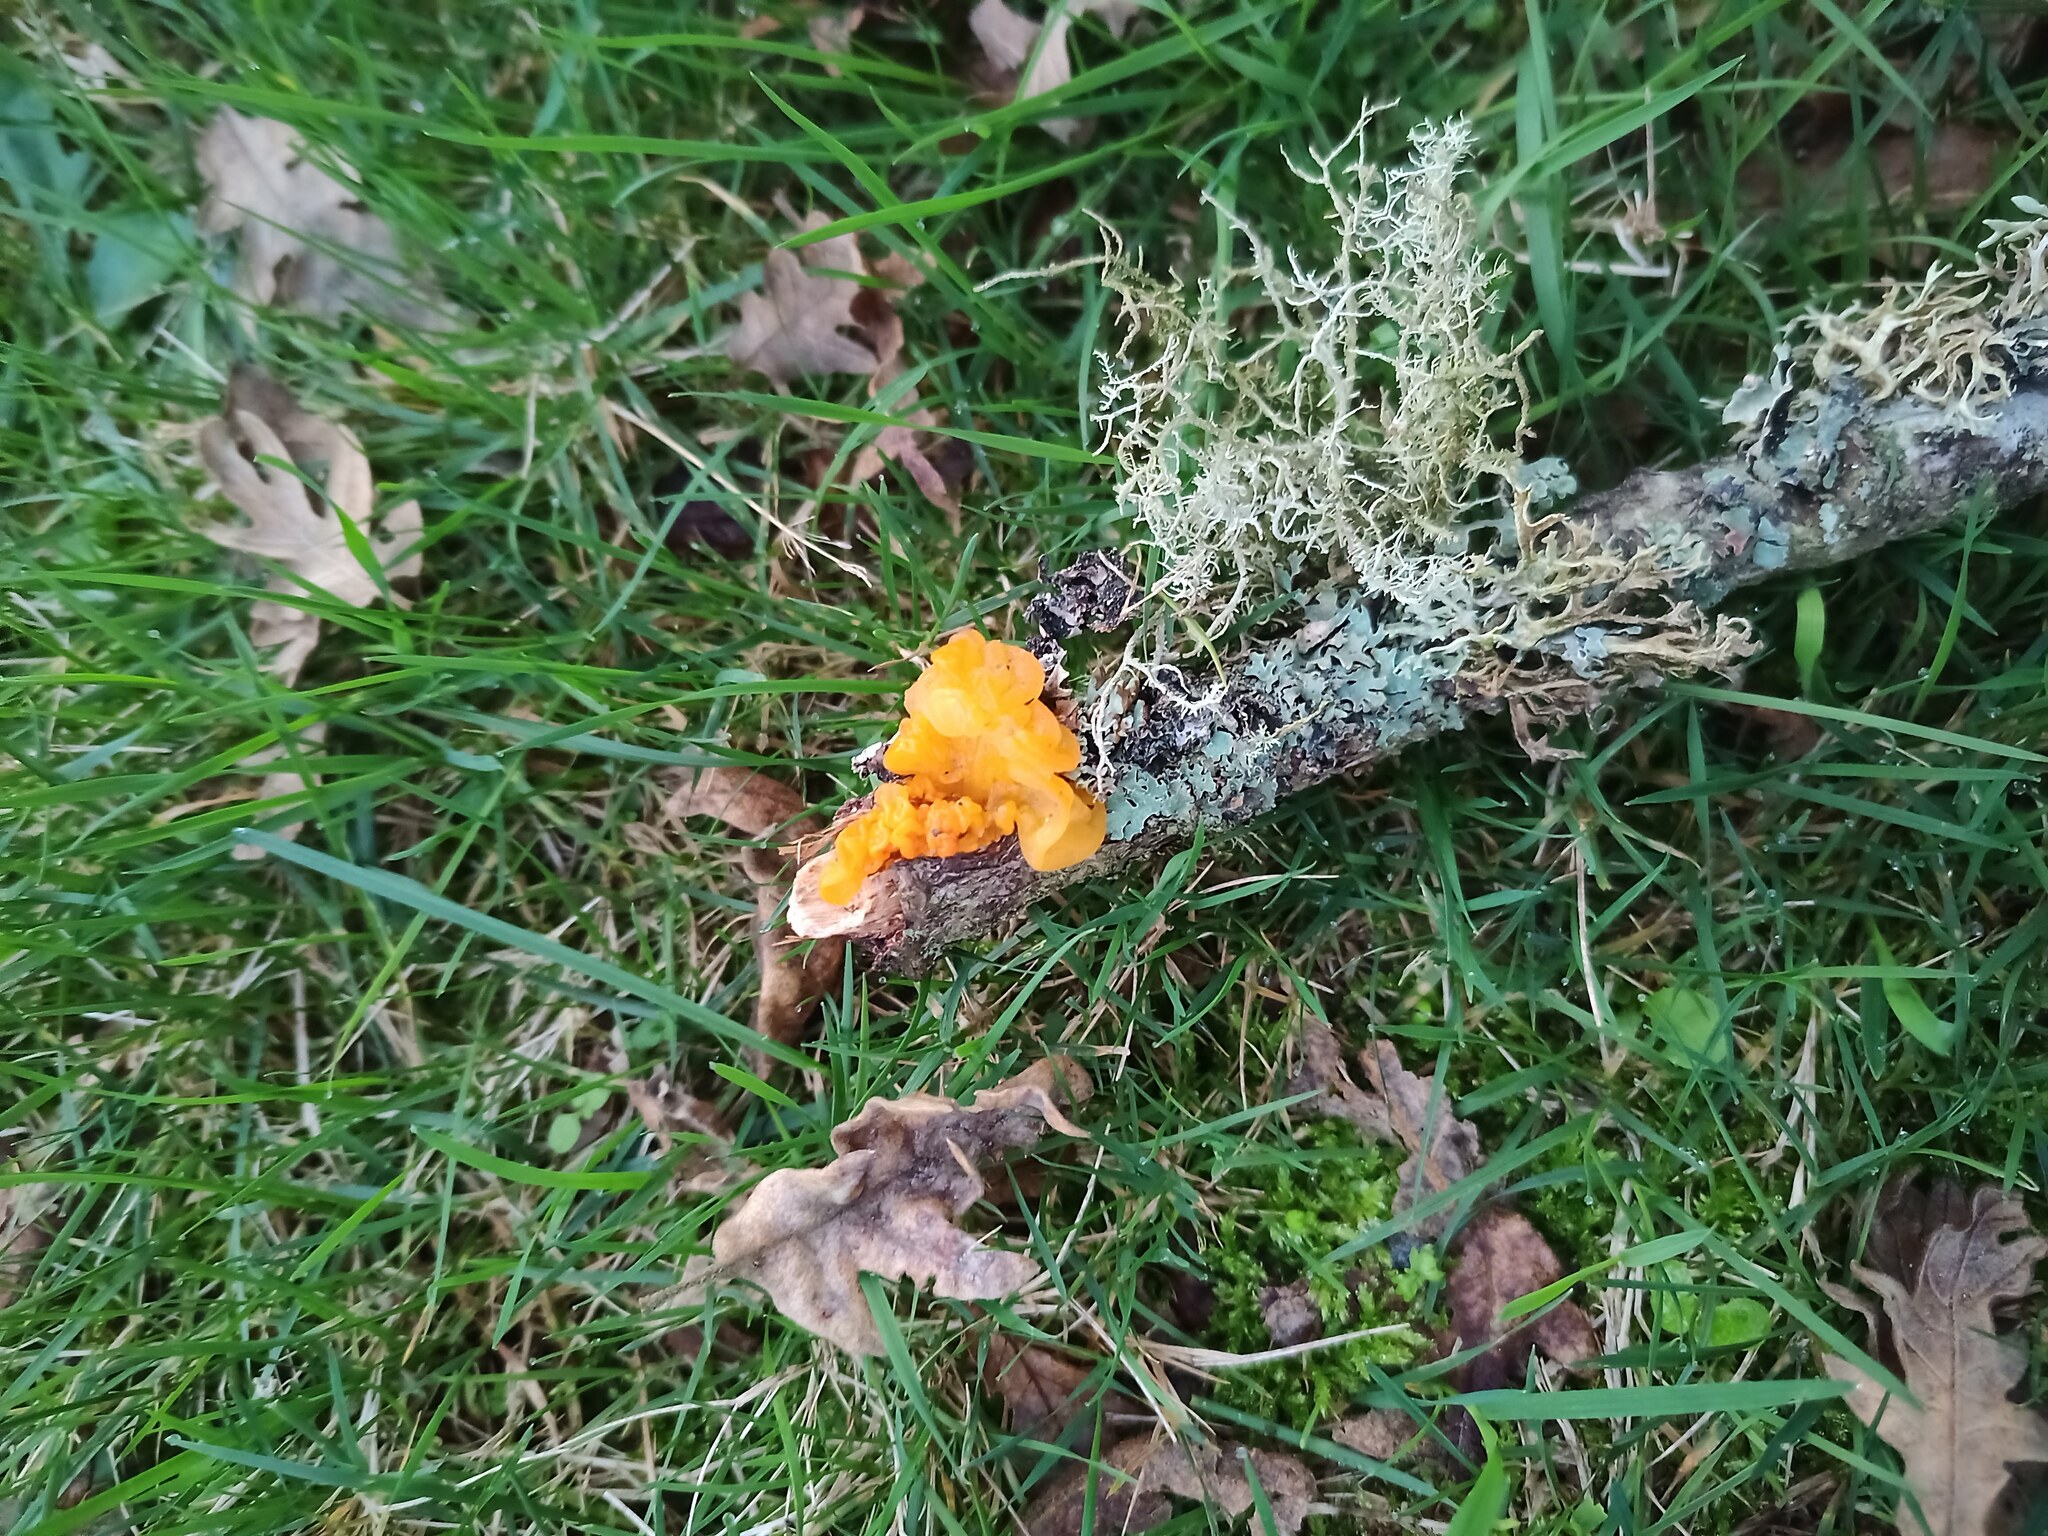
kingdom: Fungi
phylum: Basidiomycota
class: Tremellomycetes
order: Tremellales
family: Tremellaceae
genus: Tremella
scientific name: Tremella mesenterica
